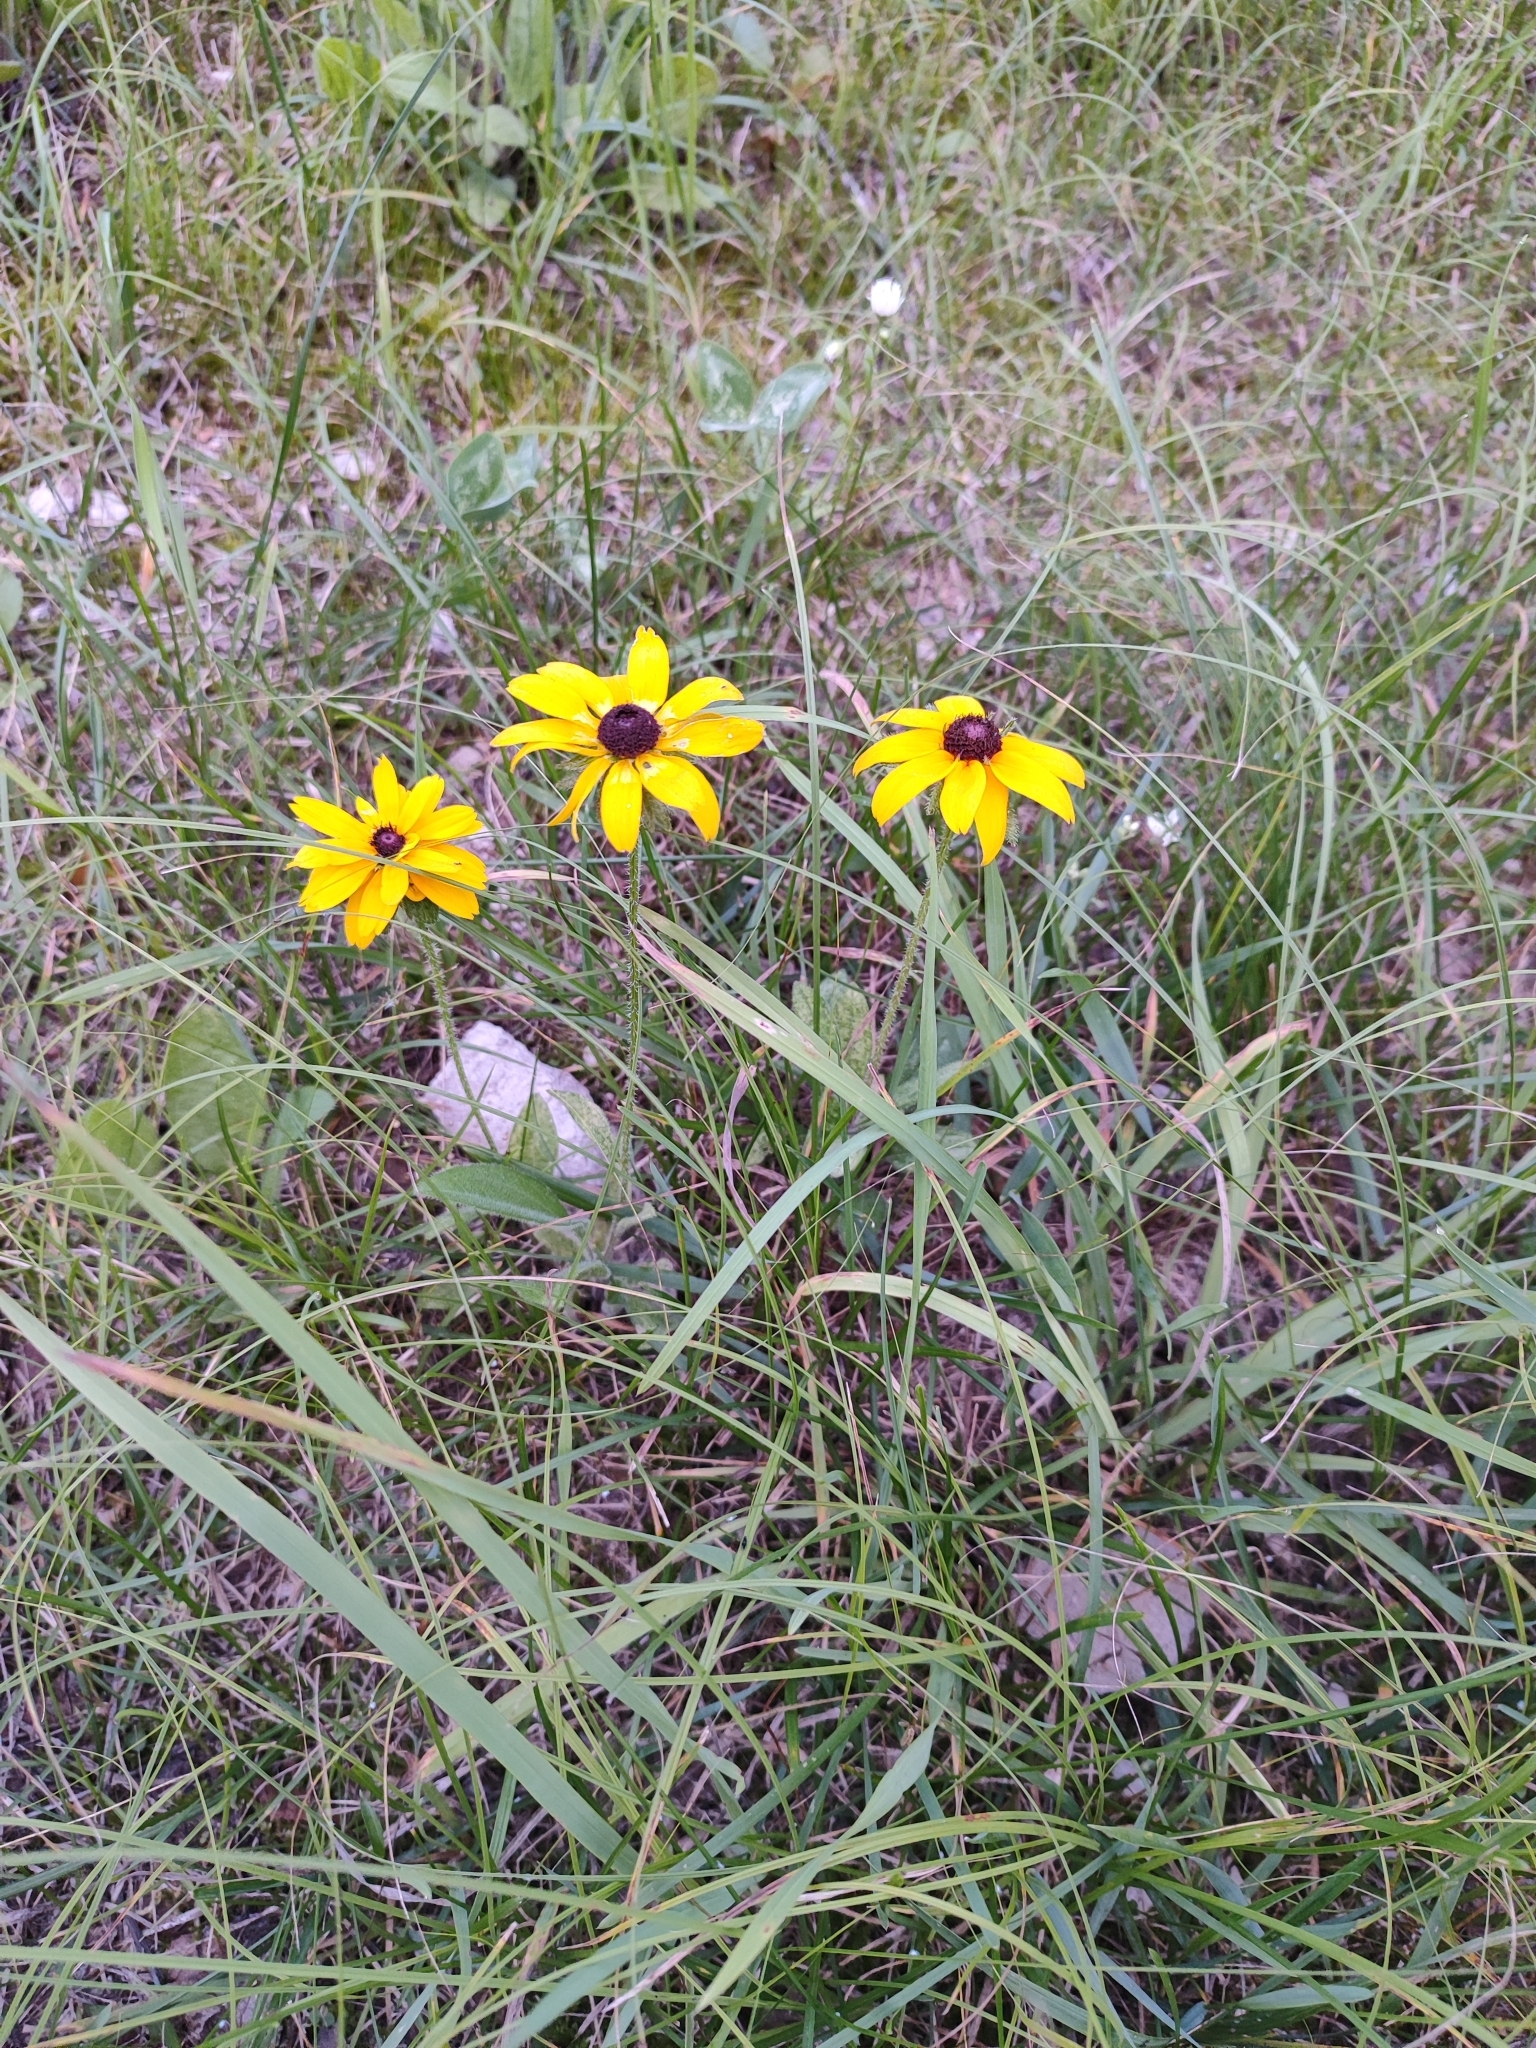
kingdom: Plantae
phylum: Tracheophyta
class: Magnoliopsida
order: Asterales
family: Asteraceae
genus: Rudbeckia
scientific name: Rudbeckia hirta
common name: Black-eyed-susan
